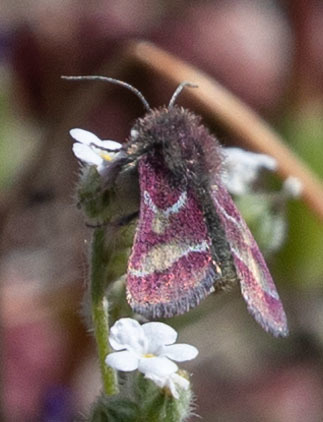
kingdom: Animalia
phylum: Arthropoda
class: Insecta
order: Lepidoptera
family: Noctuidae
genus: Schinia
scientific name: Schinia pulchripennis
